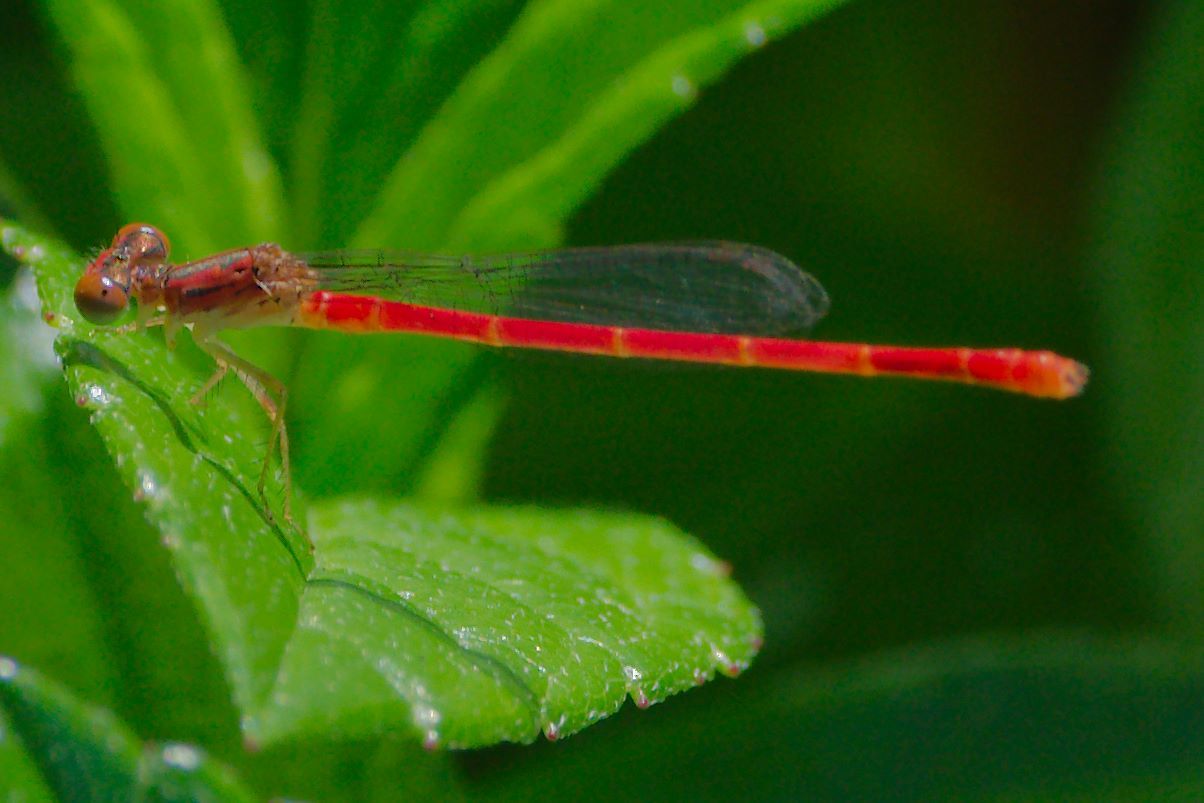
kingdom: Animalia
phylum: Arthropoda
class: Insecta
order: Odonata
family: Coenagrionidae
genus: Telebasis
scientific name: Telebasis byersi
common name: Duckweed firetail
